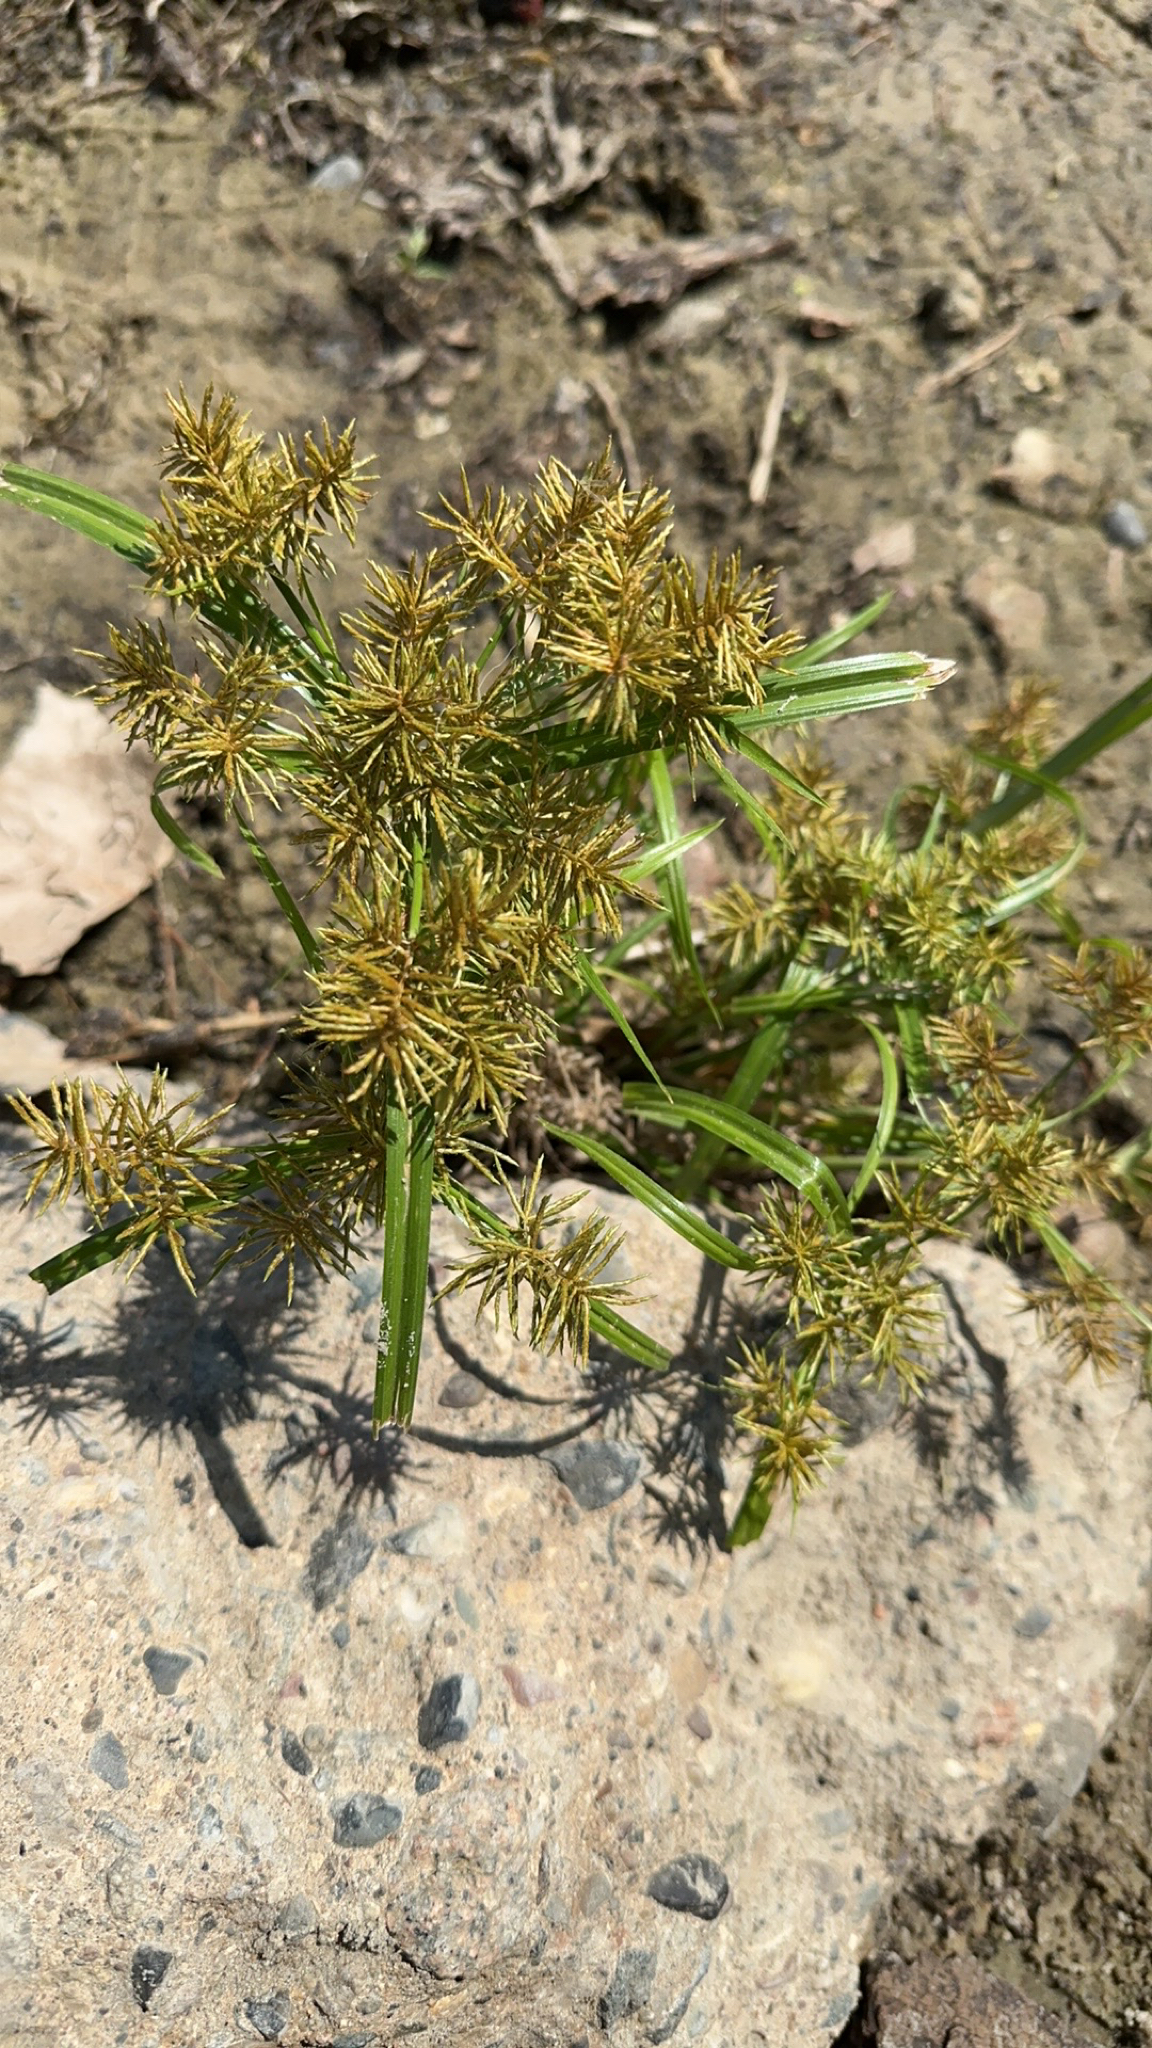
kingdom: Plantae
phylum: Tracheophyta
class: Liliopsida
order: Poales
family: Cyperaceae
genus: Cyperus
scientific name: Cyperus odoratus
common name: Fragrant flatsedge
